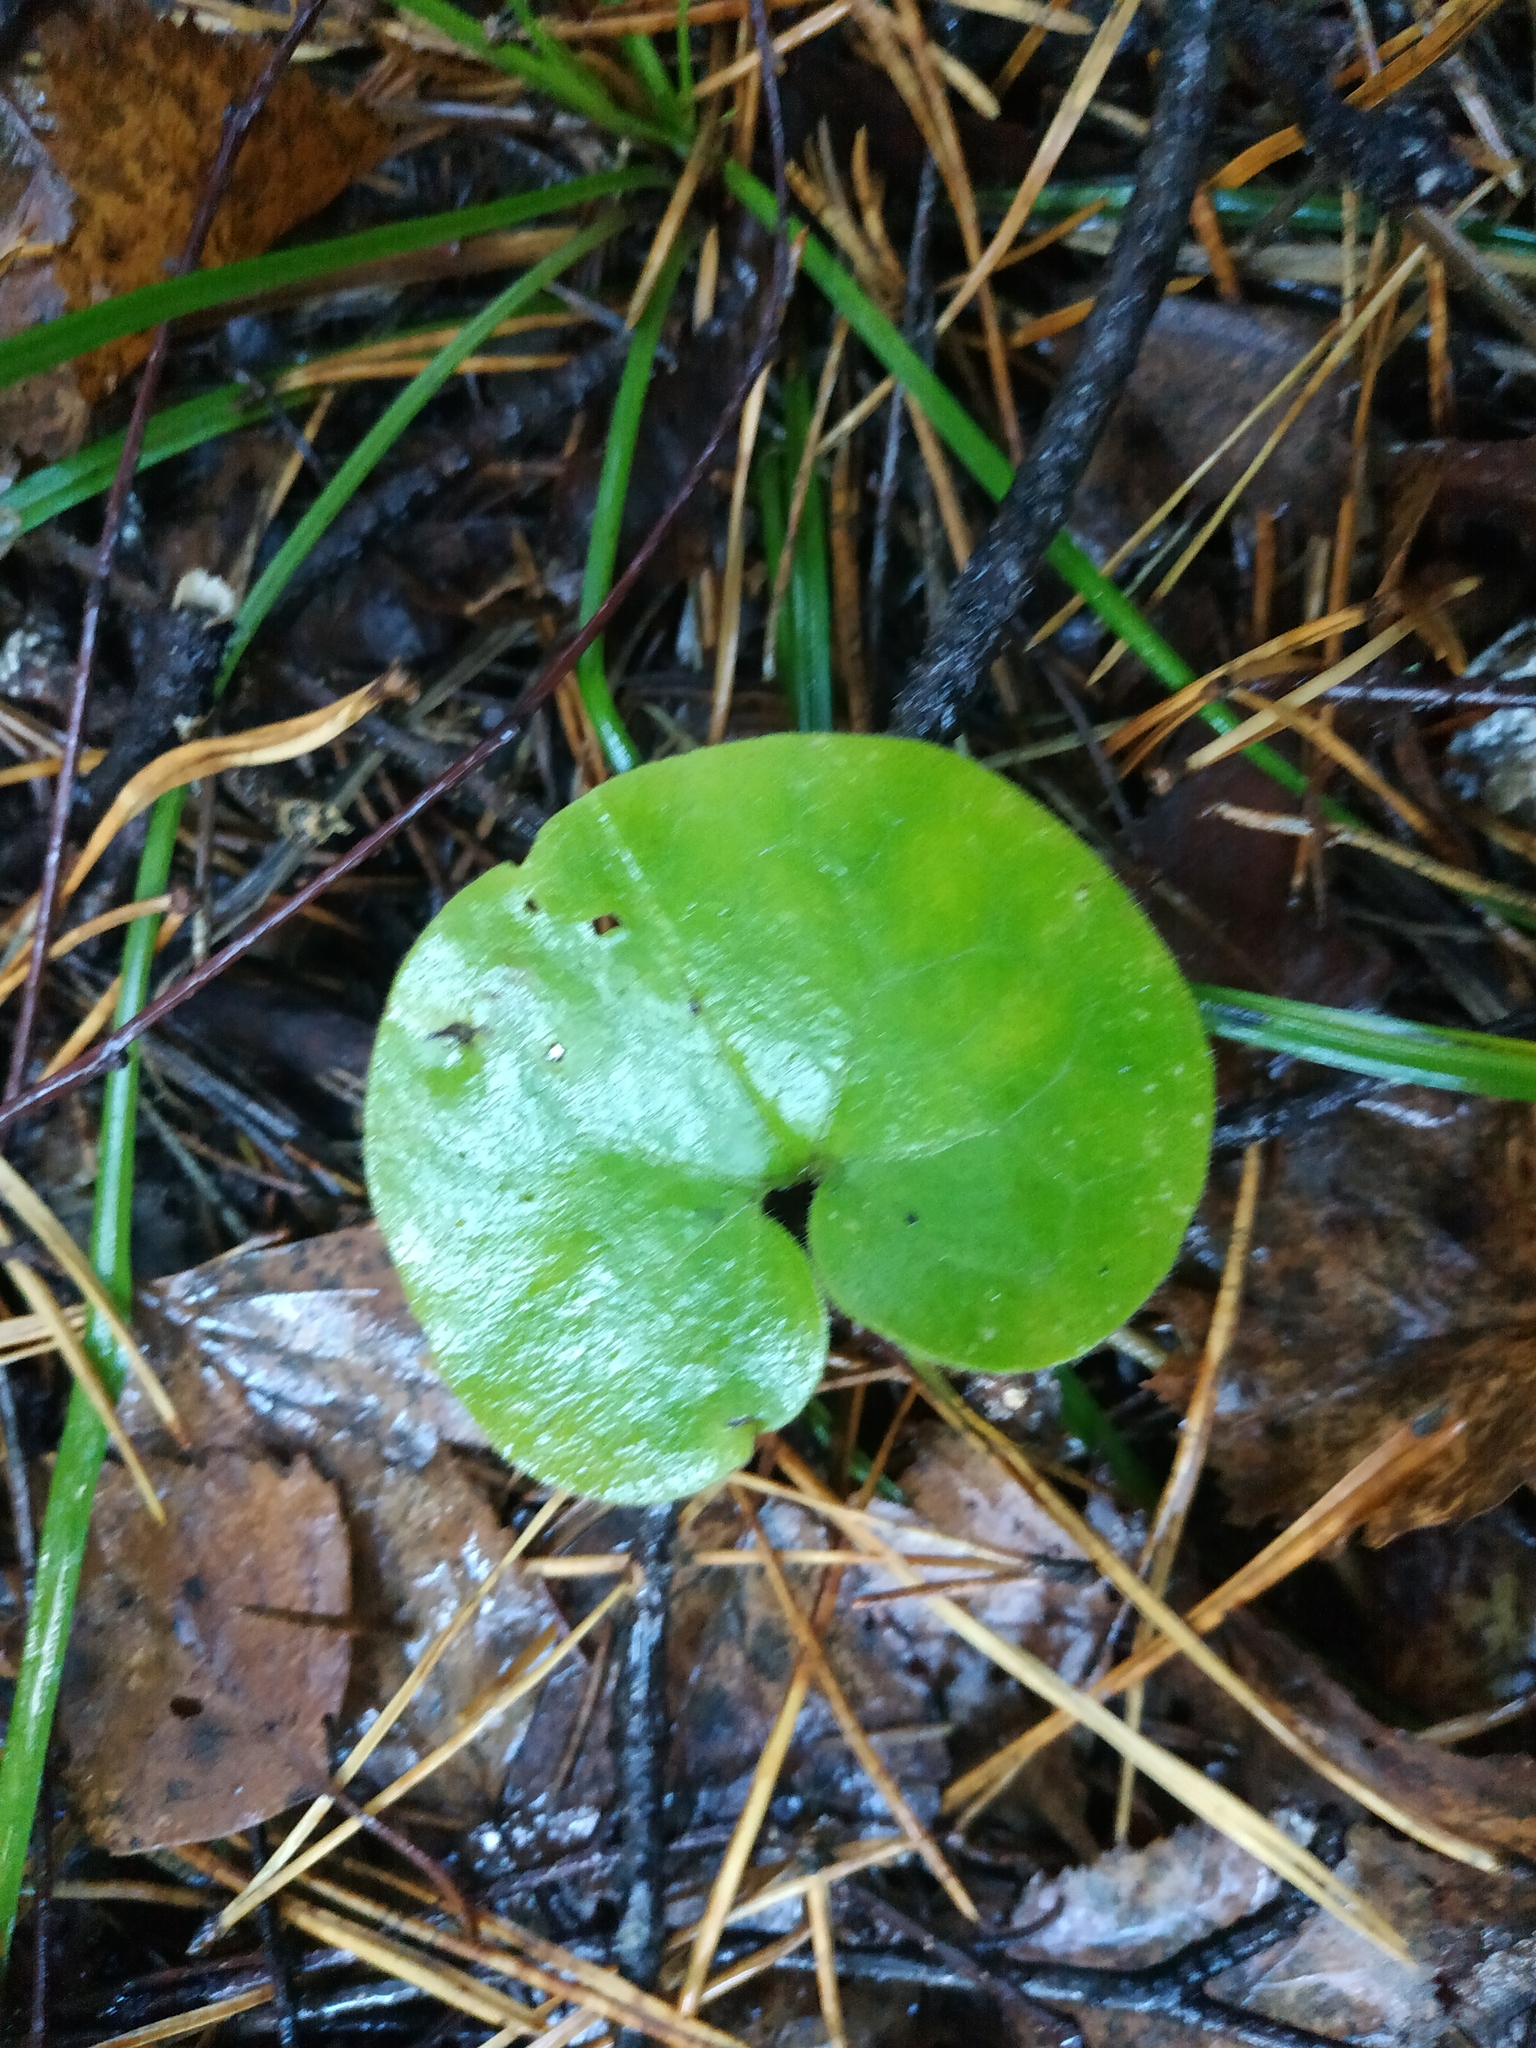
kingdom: Plantae
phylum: Tracheophyta
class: Magnoliopsida
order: Piperales
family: Aristolochiaceae
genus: Asarum
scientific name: Asarum europaeum
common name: Asarabacca
